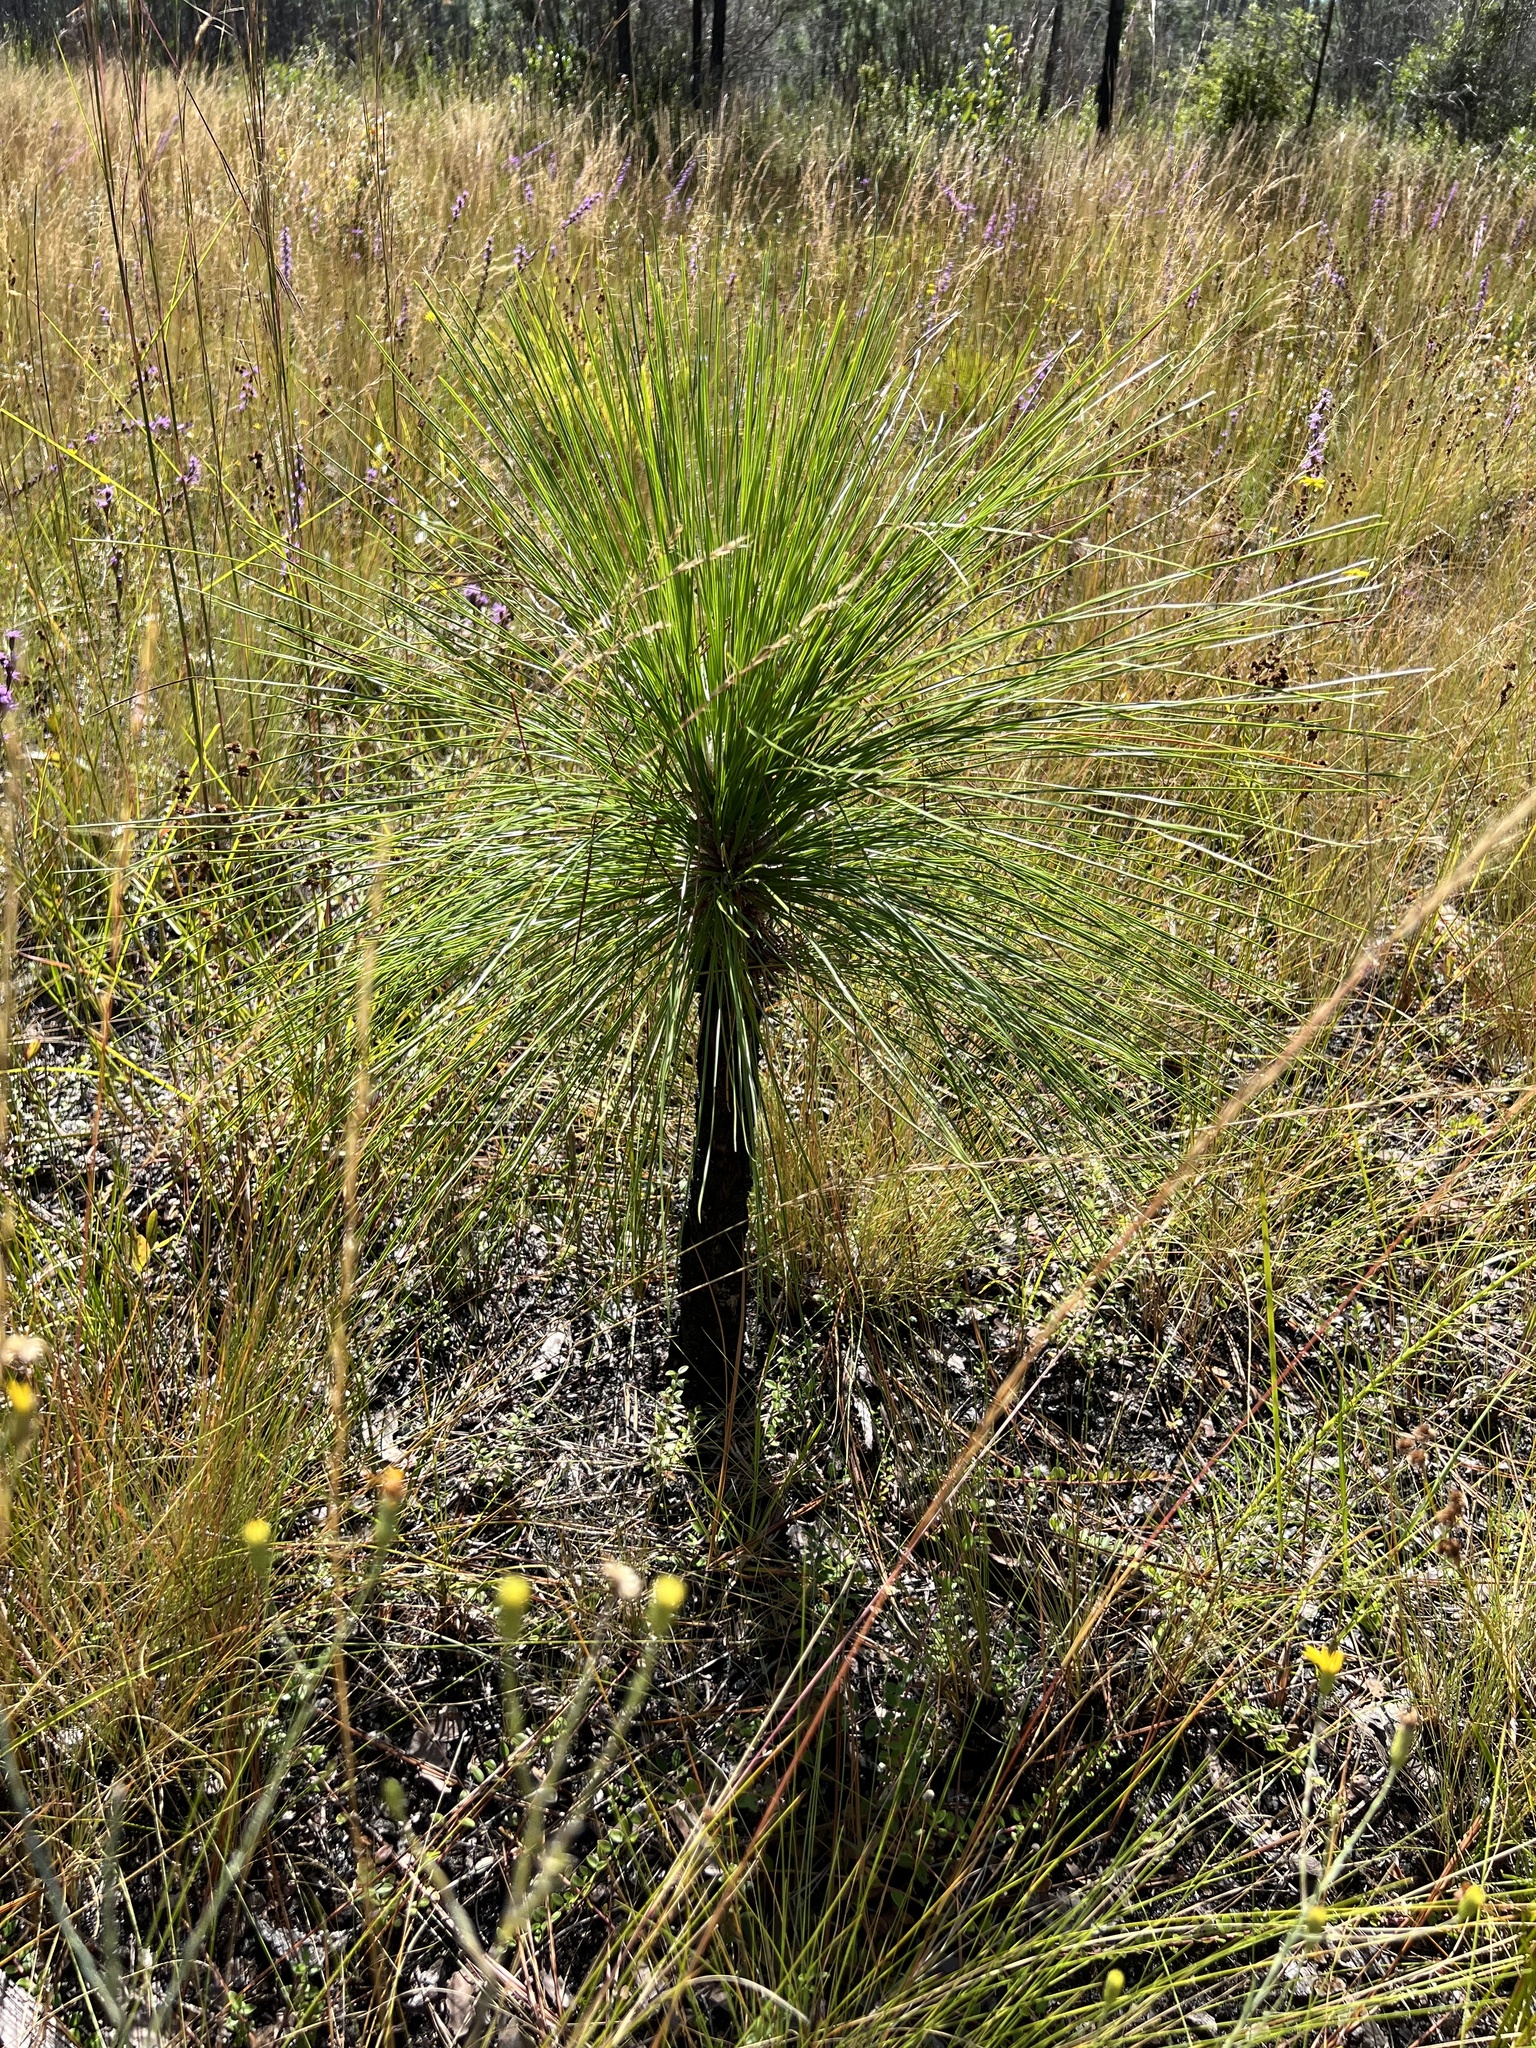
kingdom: Plantae
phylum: Tracheophyta
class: Pinopsida
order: Pinales
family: Pinaceae
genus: Pinus
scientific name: Pinus palustris
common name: Longleaf pine
